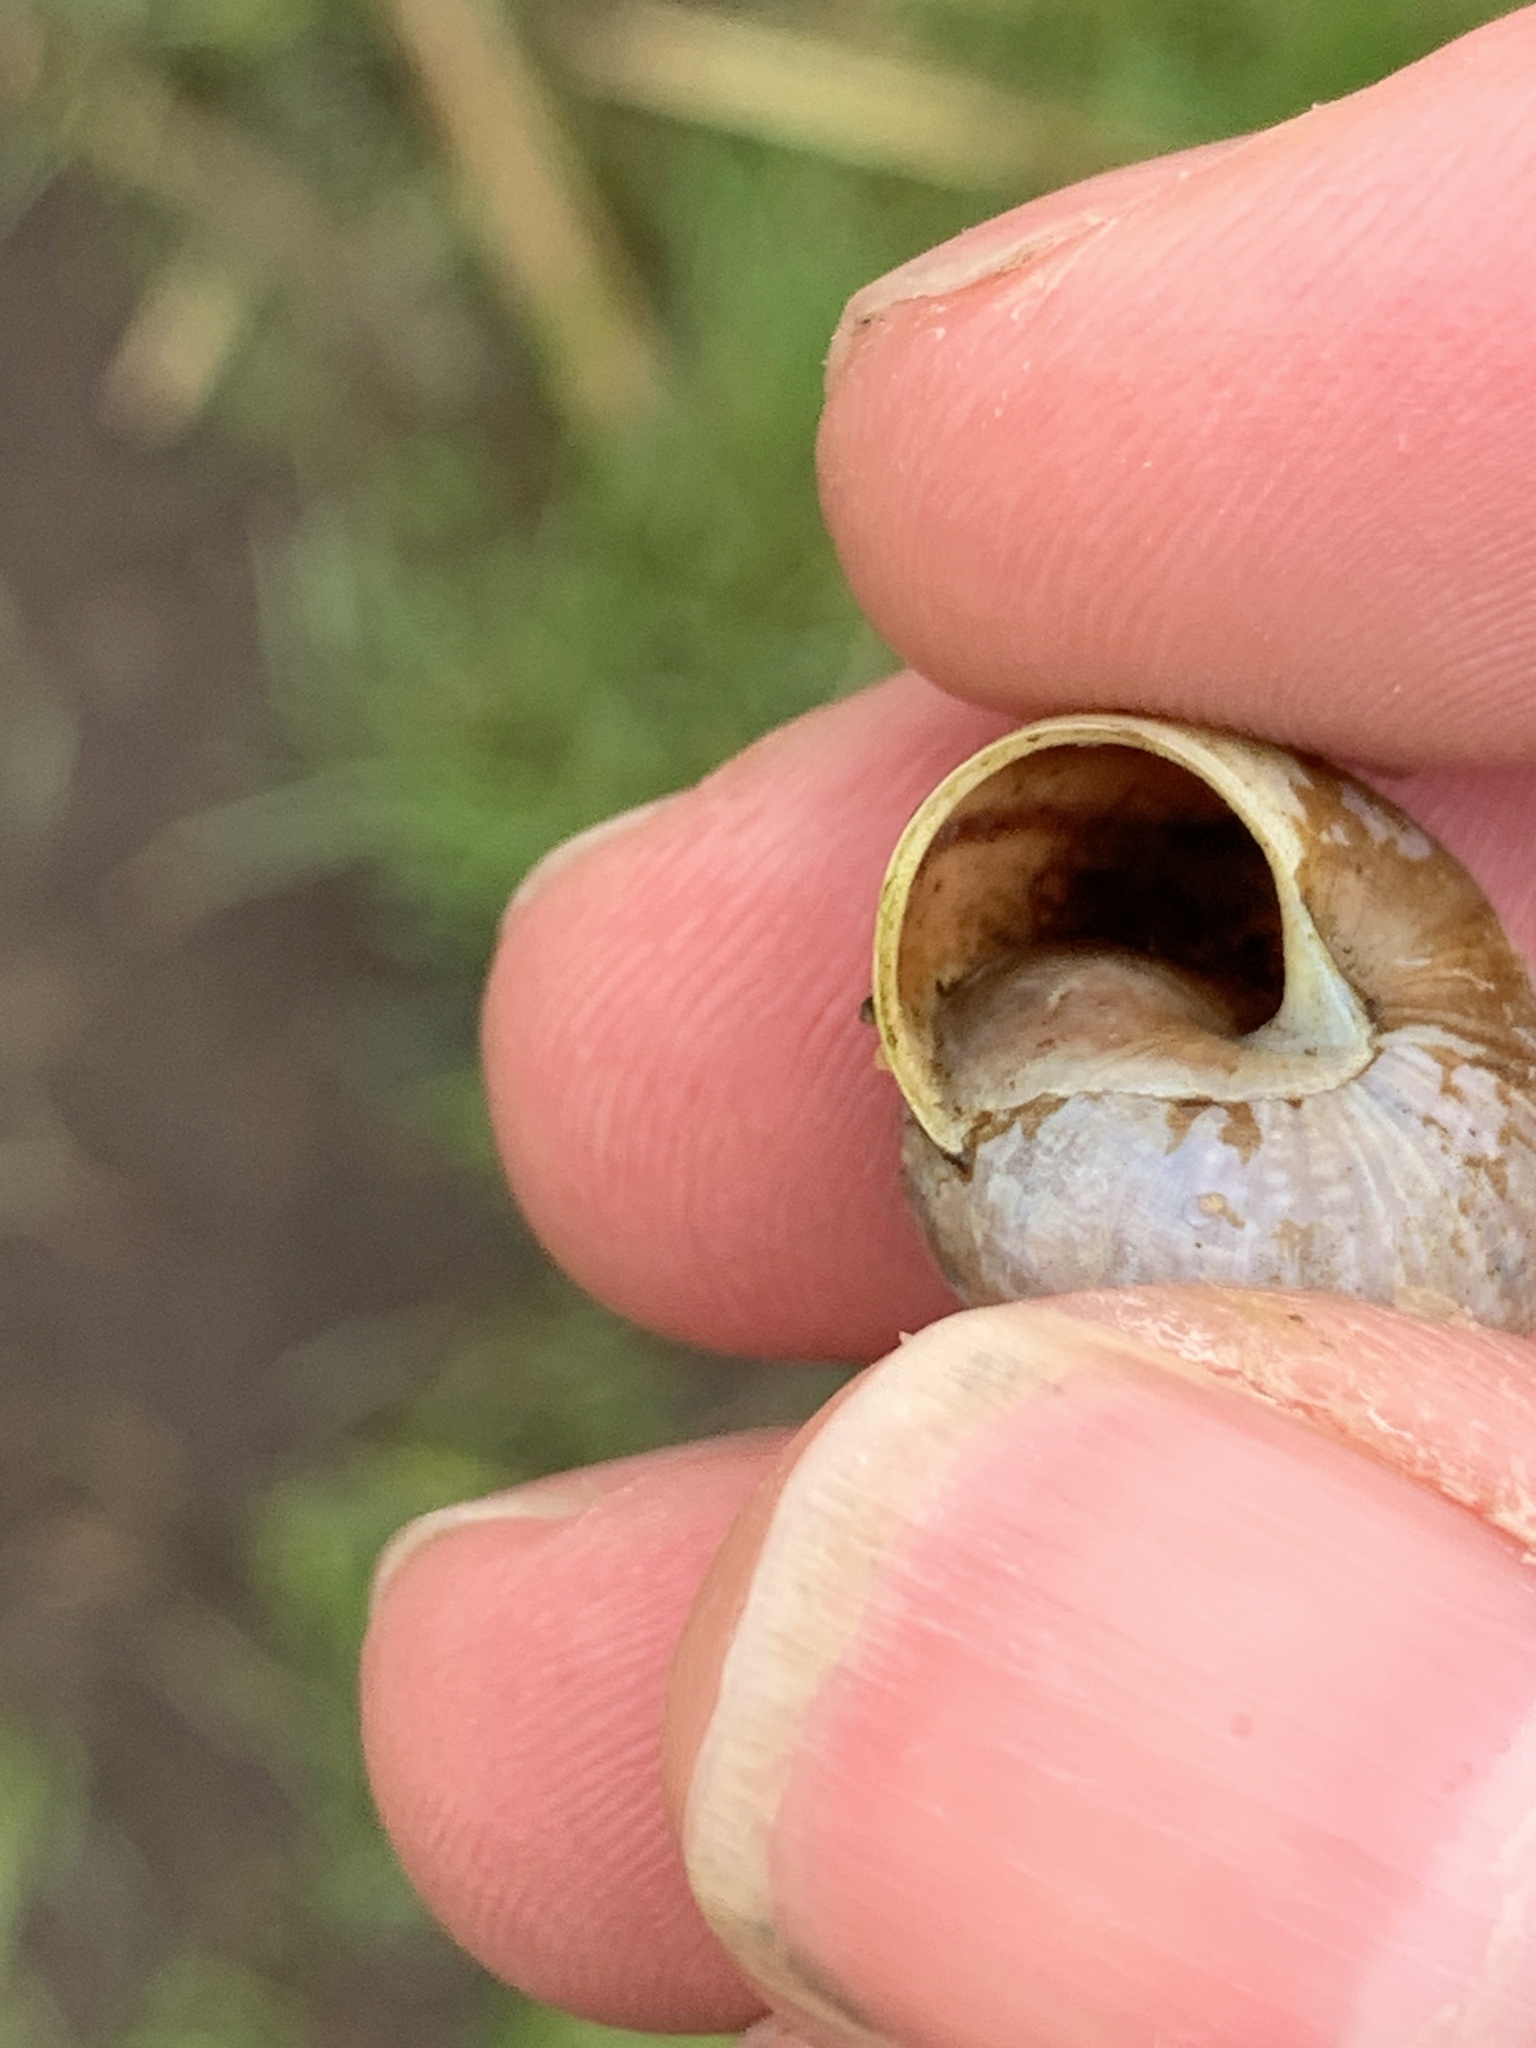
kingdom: Animalia
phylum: Mollusca
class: Gastropoda
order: Stylommatophora
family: Helicidae
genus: Arianta
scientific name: Arianta arbustorum
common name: Copse snail
